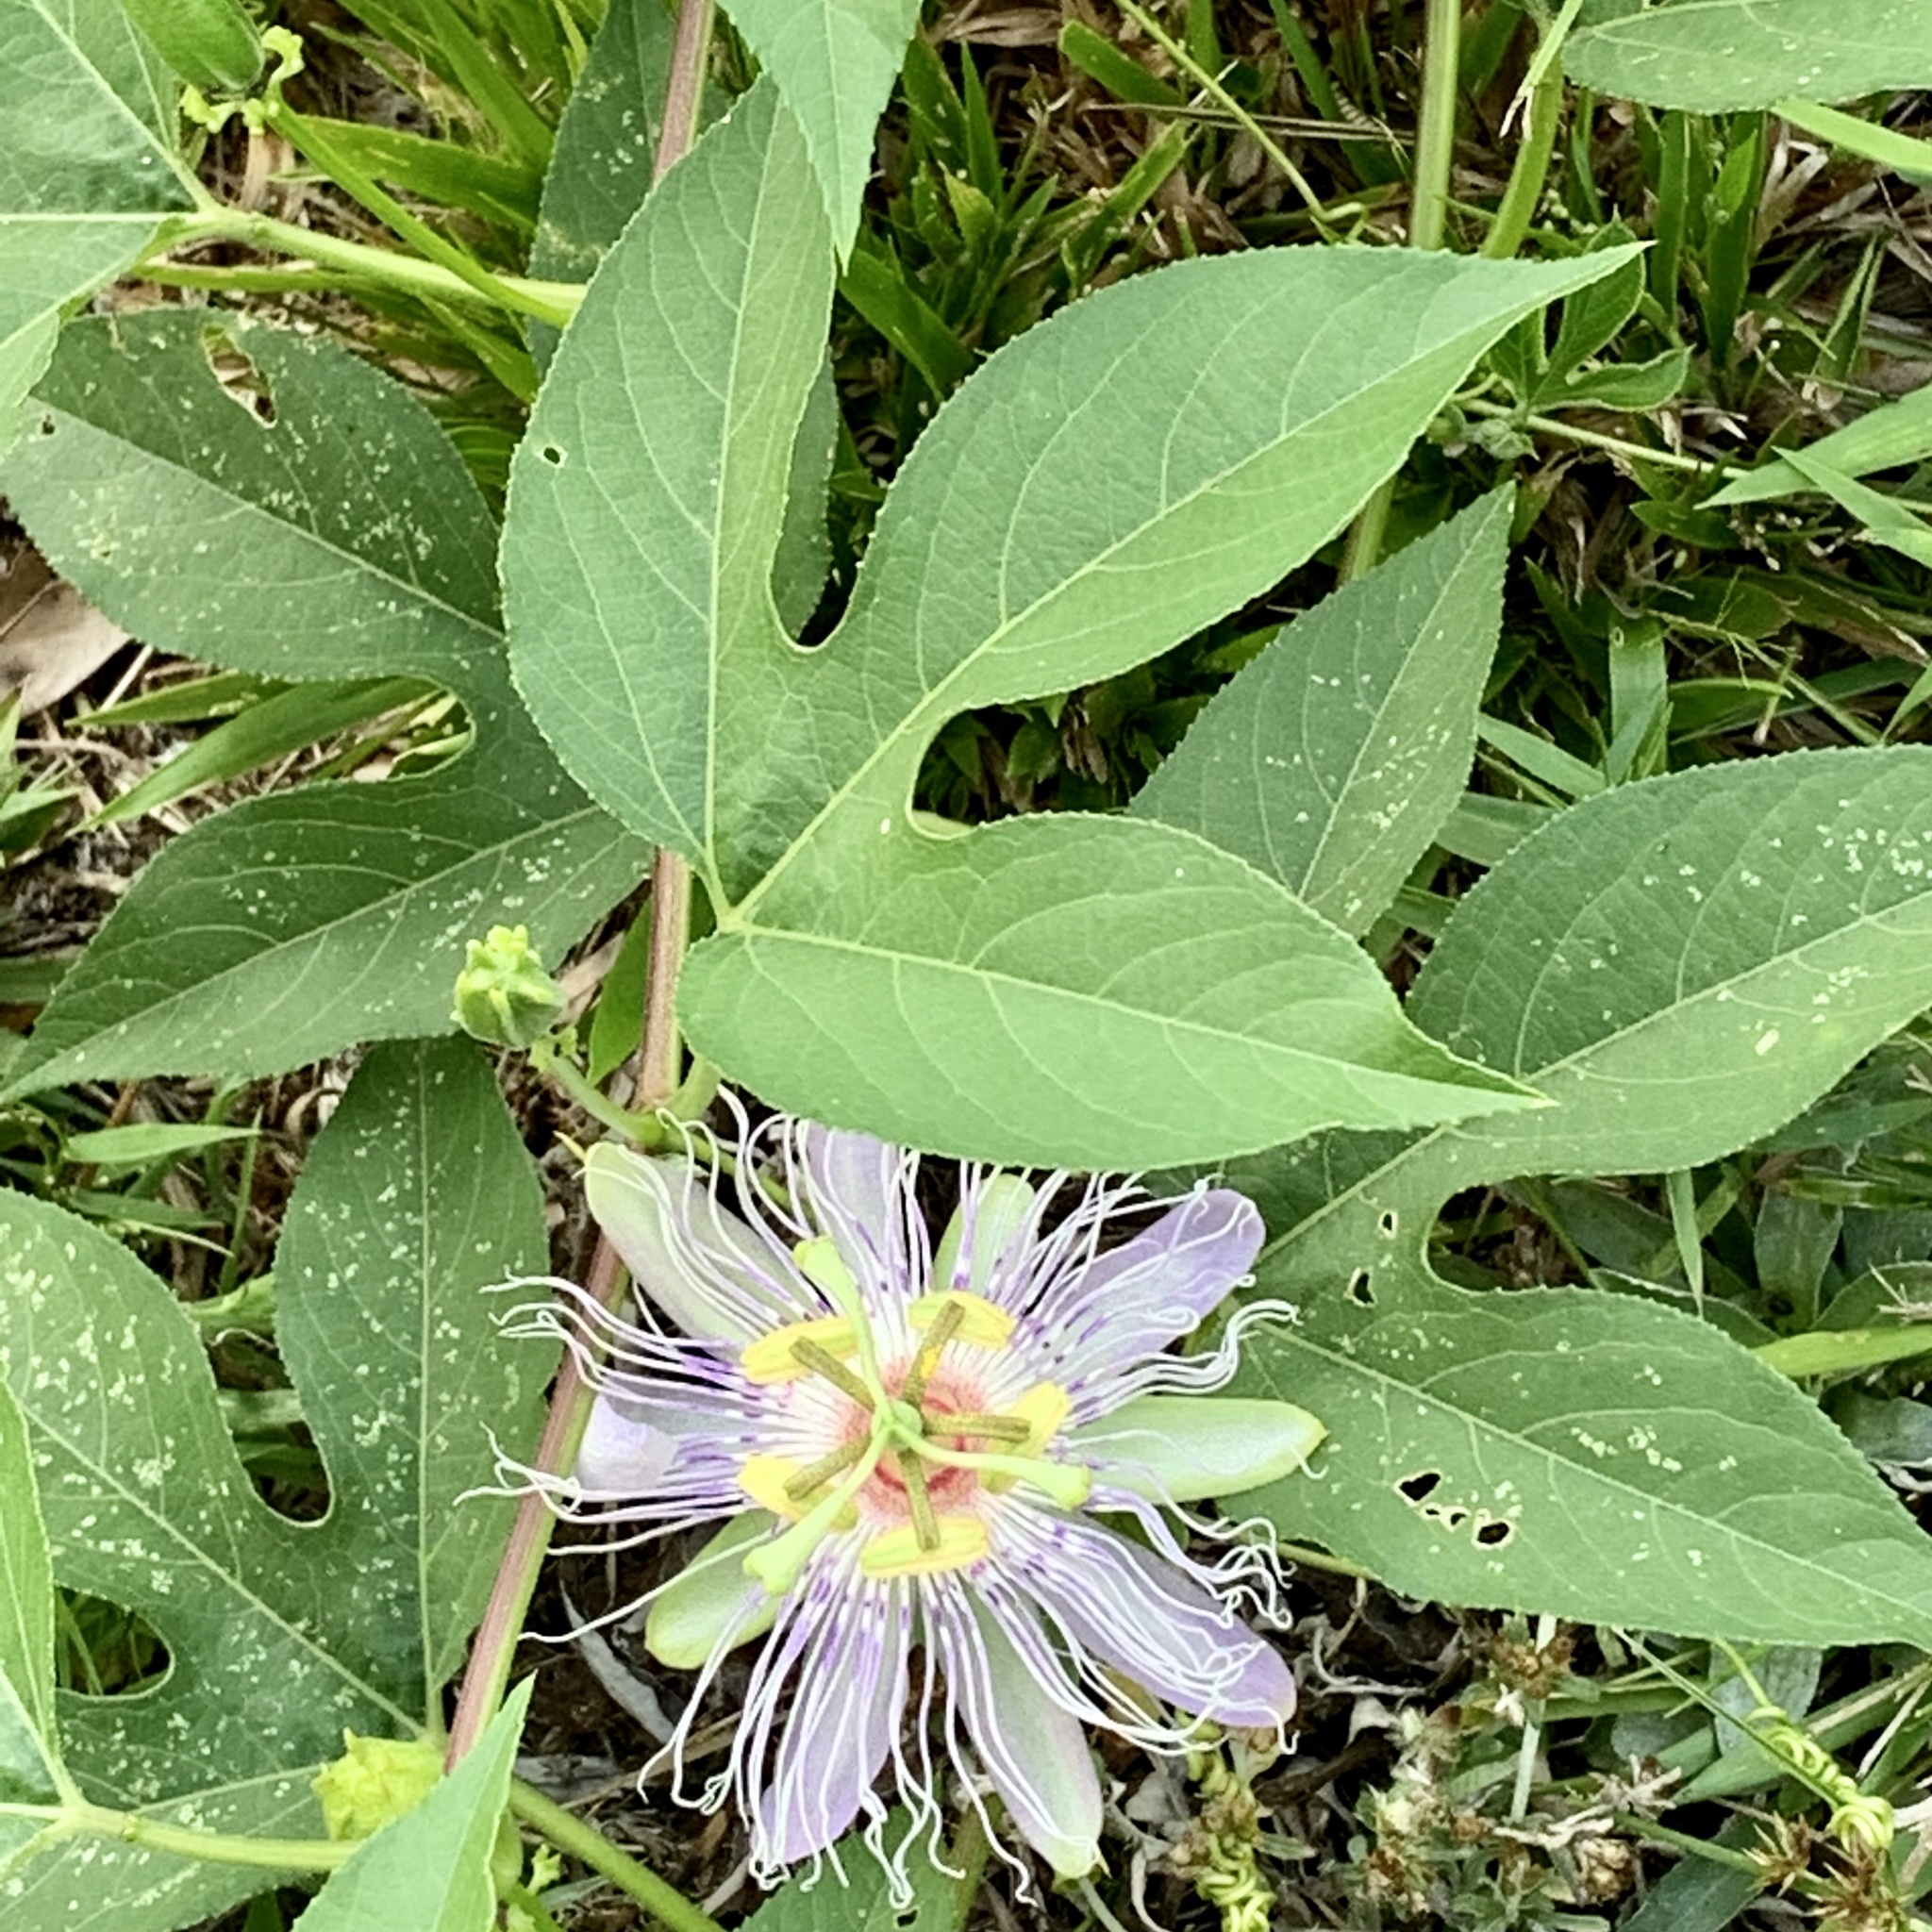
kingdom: Plantae
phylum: Tracheophyta
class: Magnoliopsida
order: Malpighiales
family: Passifloraceae
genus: Passiflora
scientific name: Passiflora incarnata
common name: Apricot-vine
